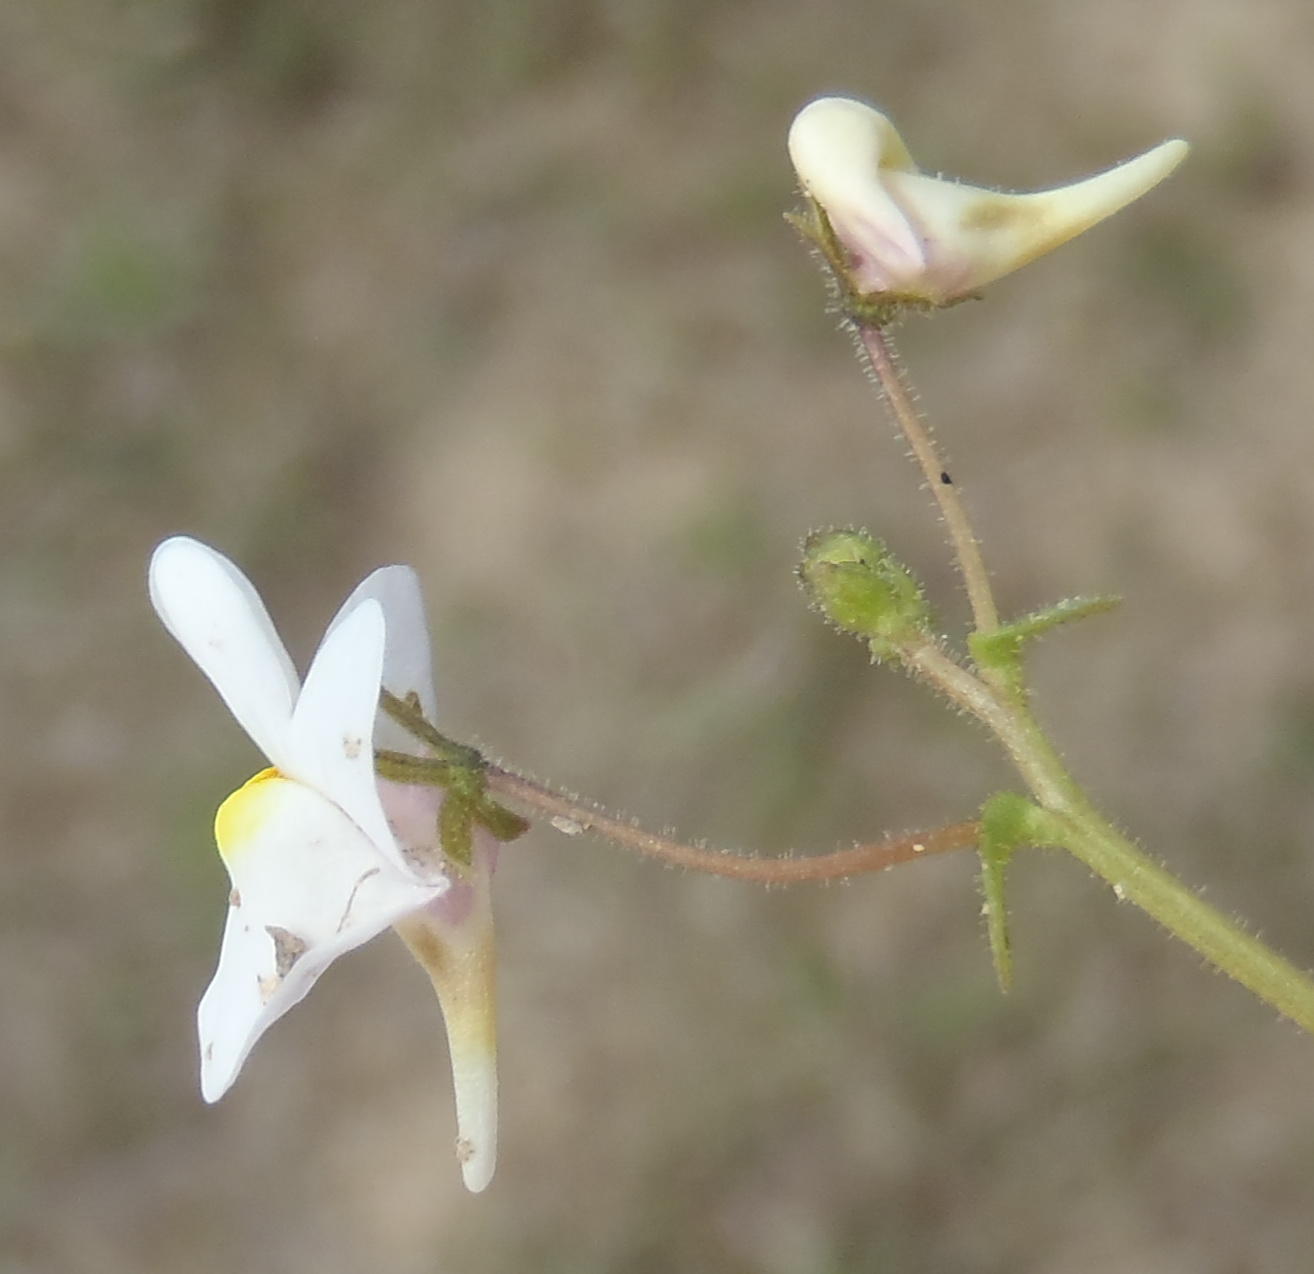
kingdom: Plantae
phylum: Tracheophyta
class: Magnoliopsida
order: Lamiales
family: Scrophulariaceae
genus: Nemesia
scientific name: Nemesia affinis
